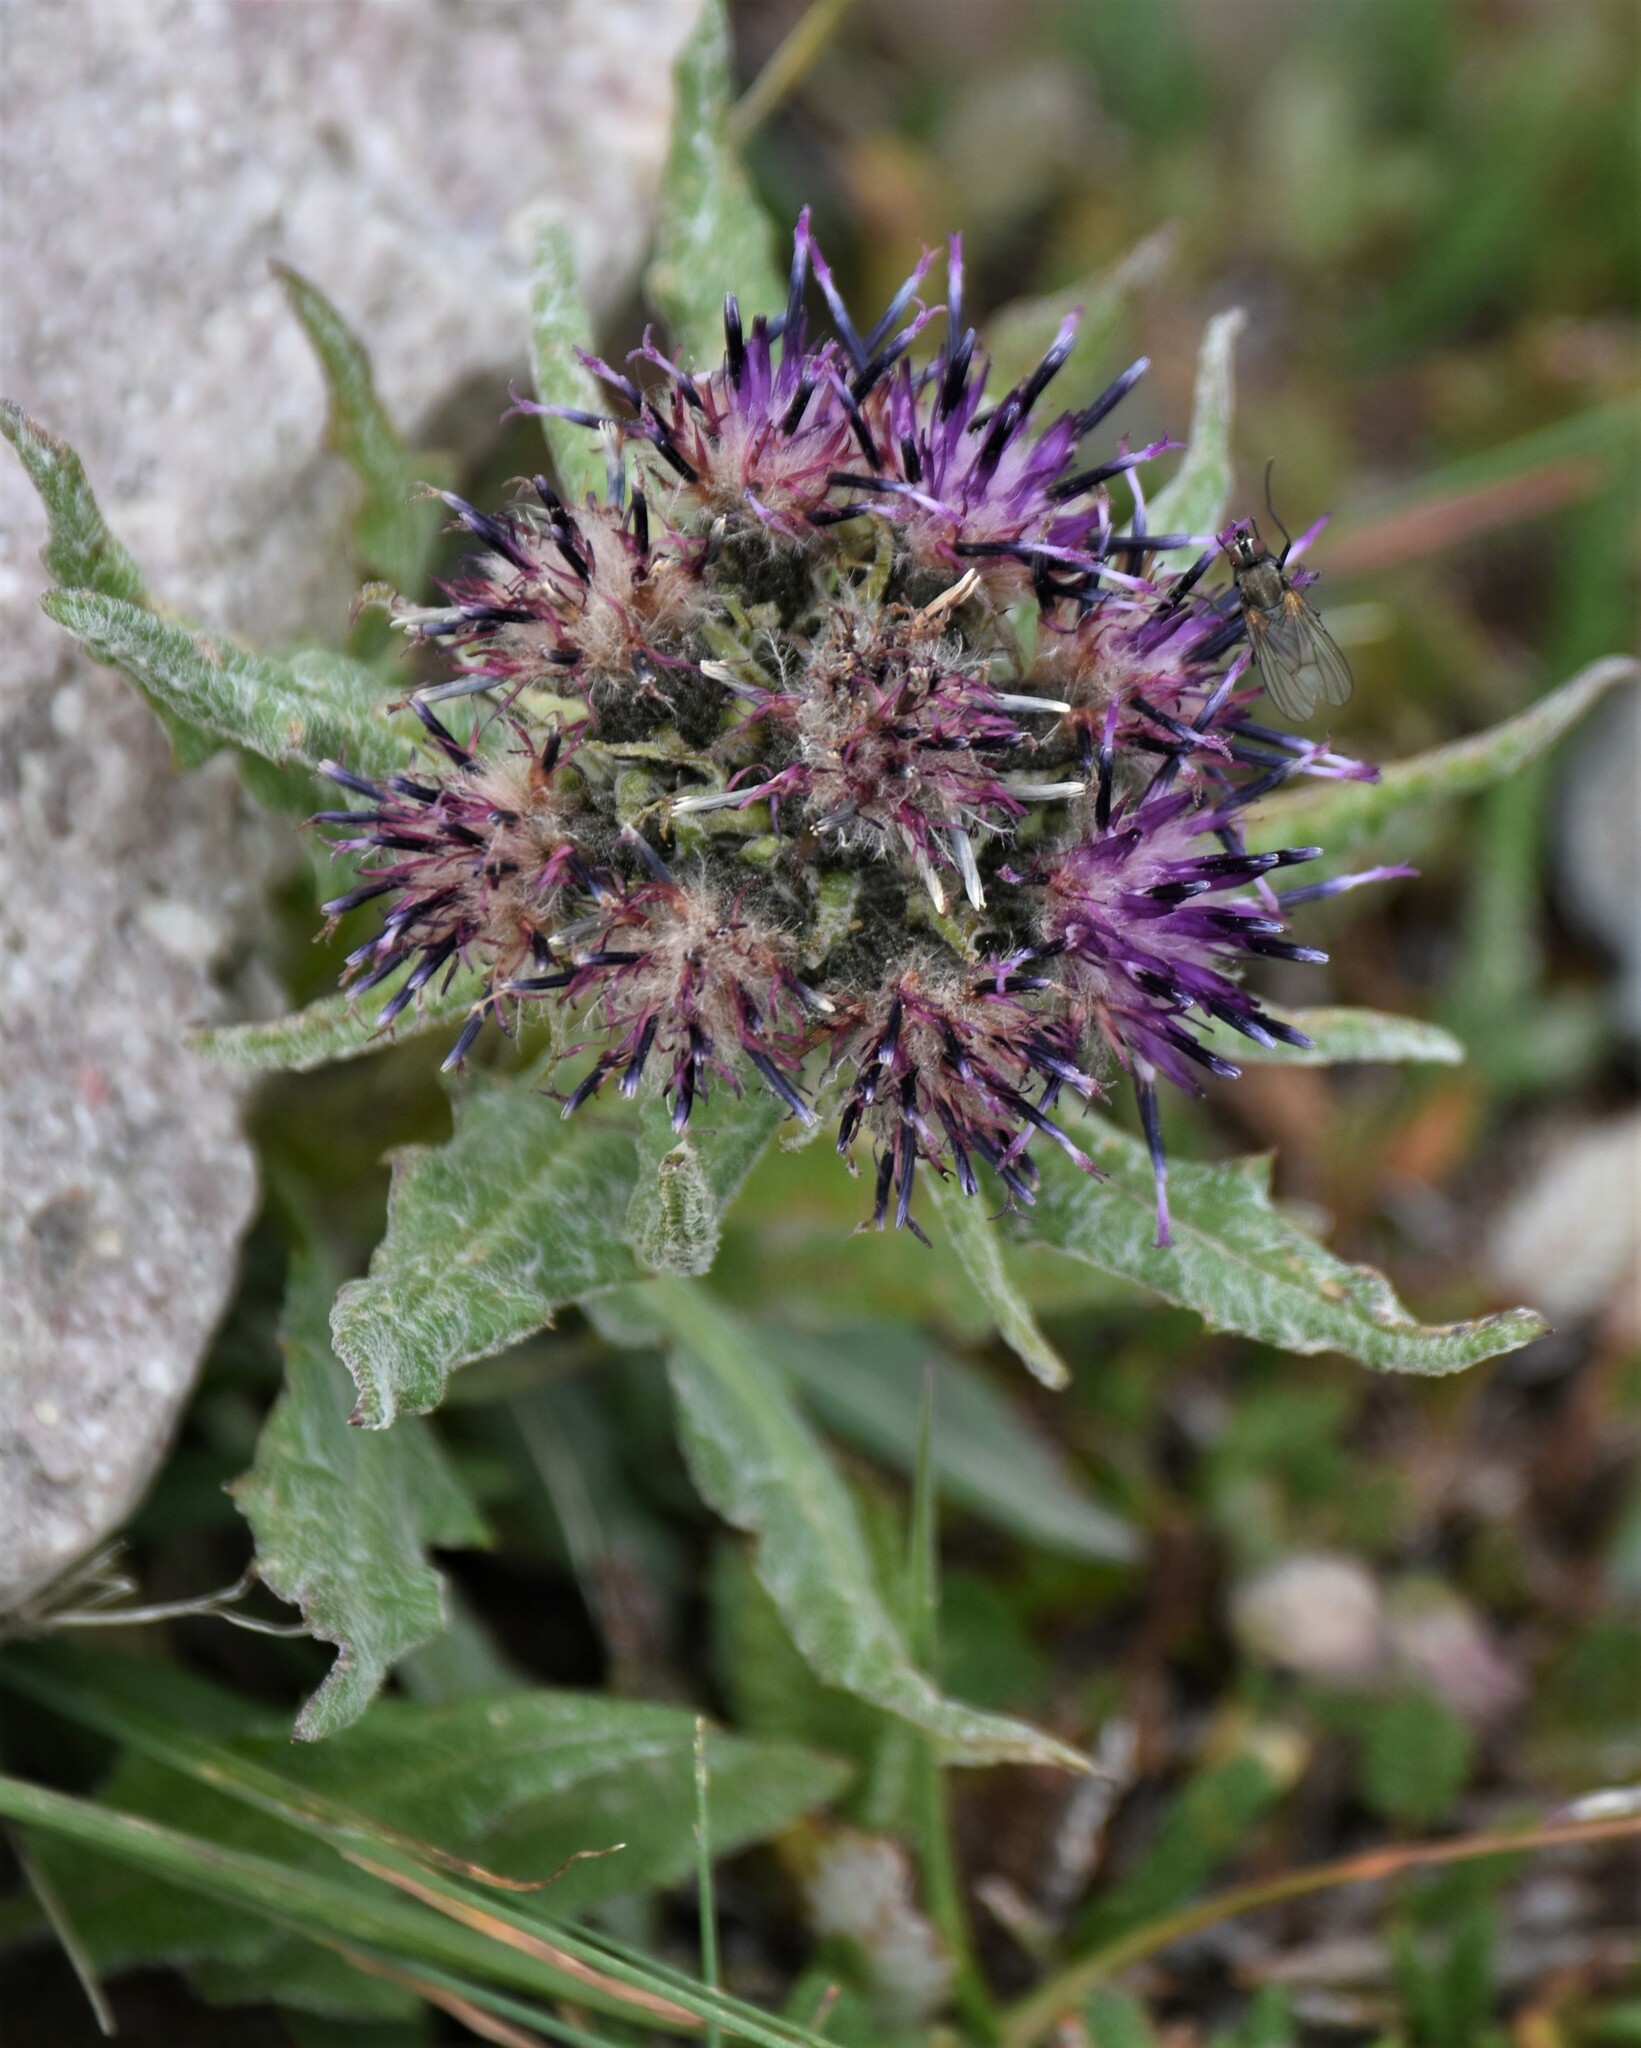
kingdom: Plantae
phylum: Tracheophyta
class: Magnoliopsida
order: Asterales
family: Asteraceae
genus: Saussurea
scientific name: Saussurea nuda
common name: Chaffless saw-wort
